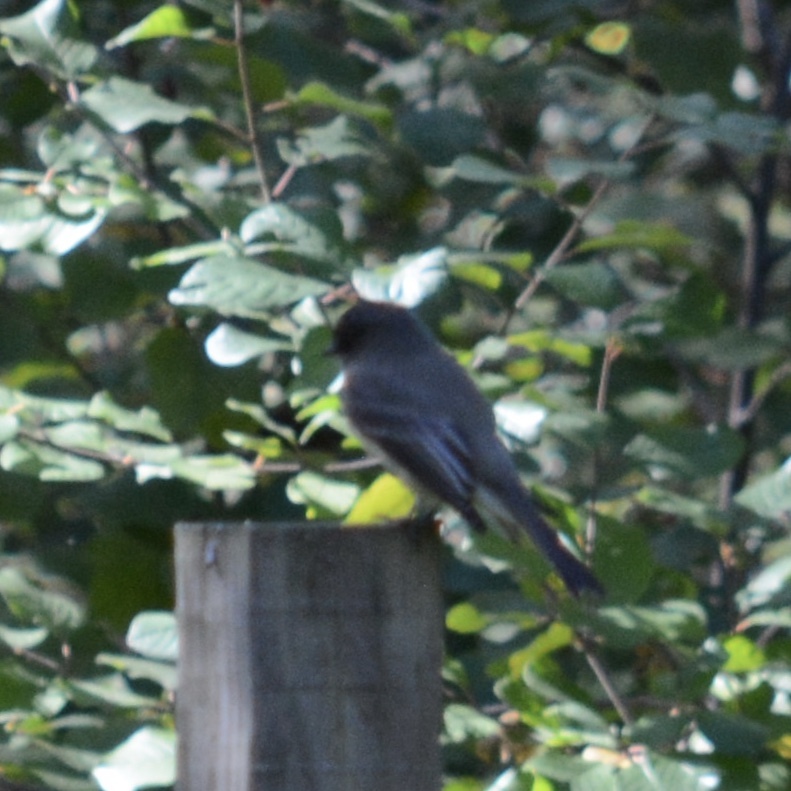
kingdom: Animalia
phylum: Chordata
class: Aves
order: Passeriformes
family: Tyrannidae
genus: Sayornis
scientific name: Sayornis phoebe
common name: Eastern phoebe
